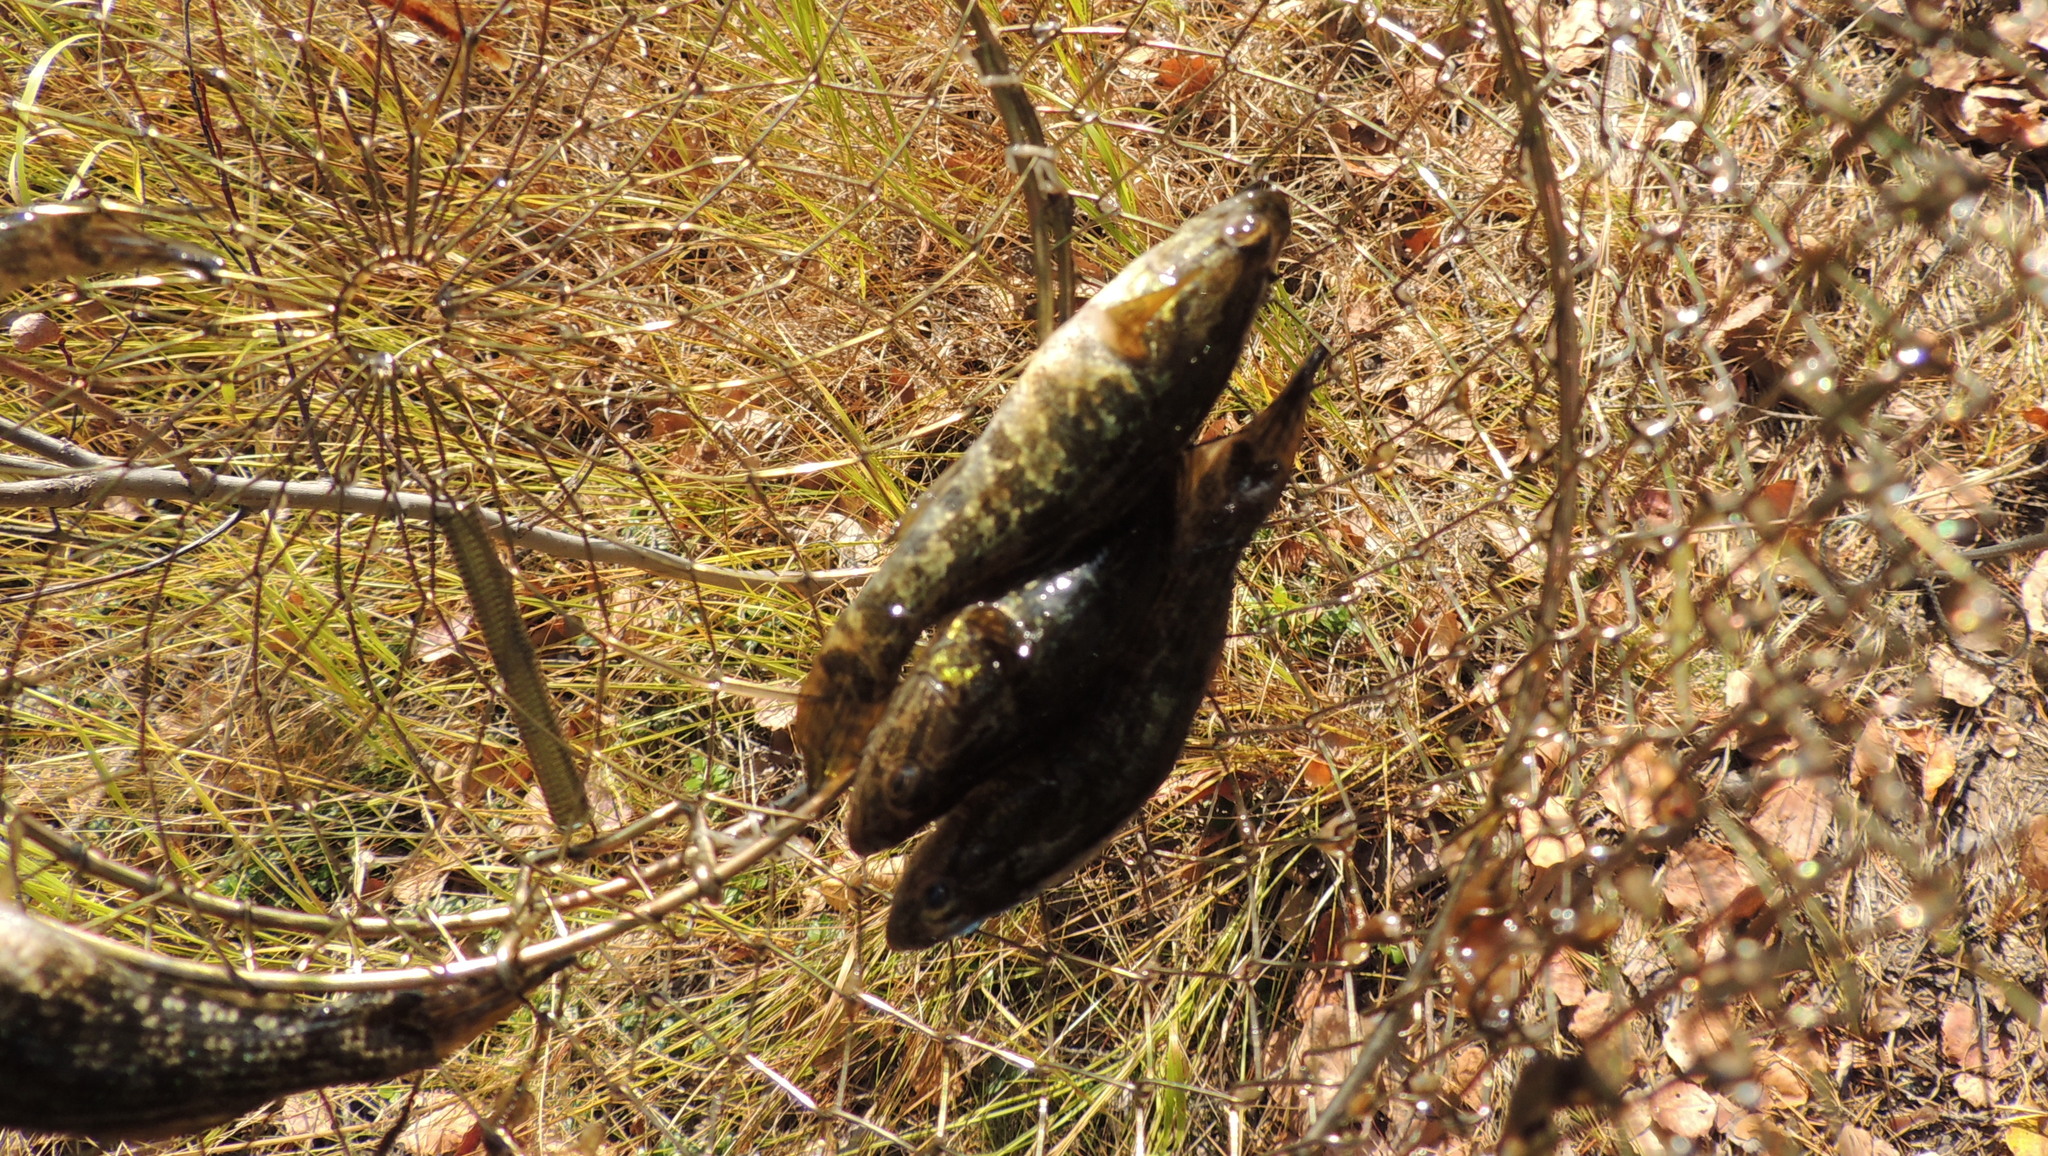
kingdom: Animalia
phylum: Chordata
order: Perciformes
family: Odontobutidae
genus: Perccottus
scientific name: Perccottus glenii
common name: Amur sleeper
